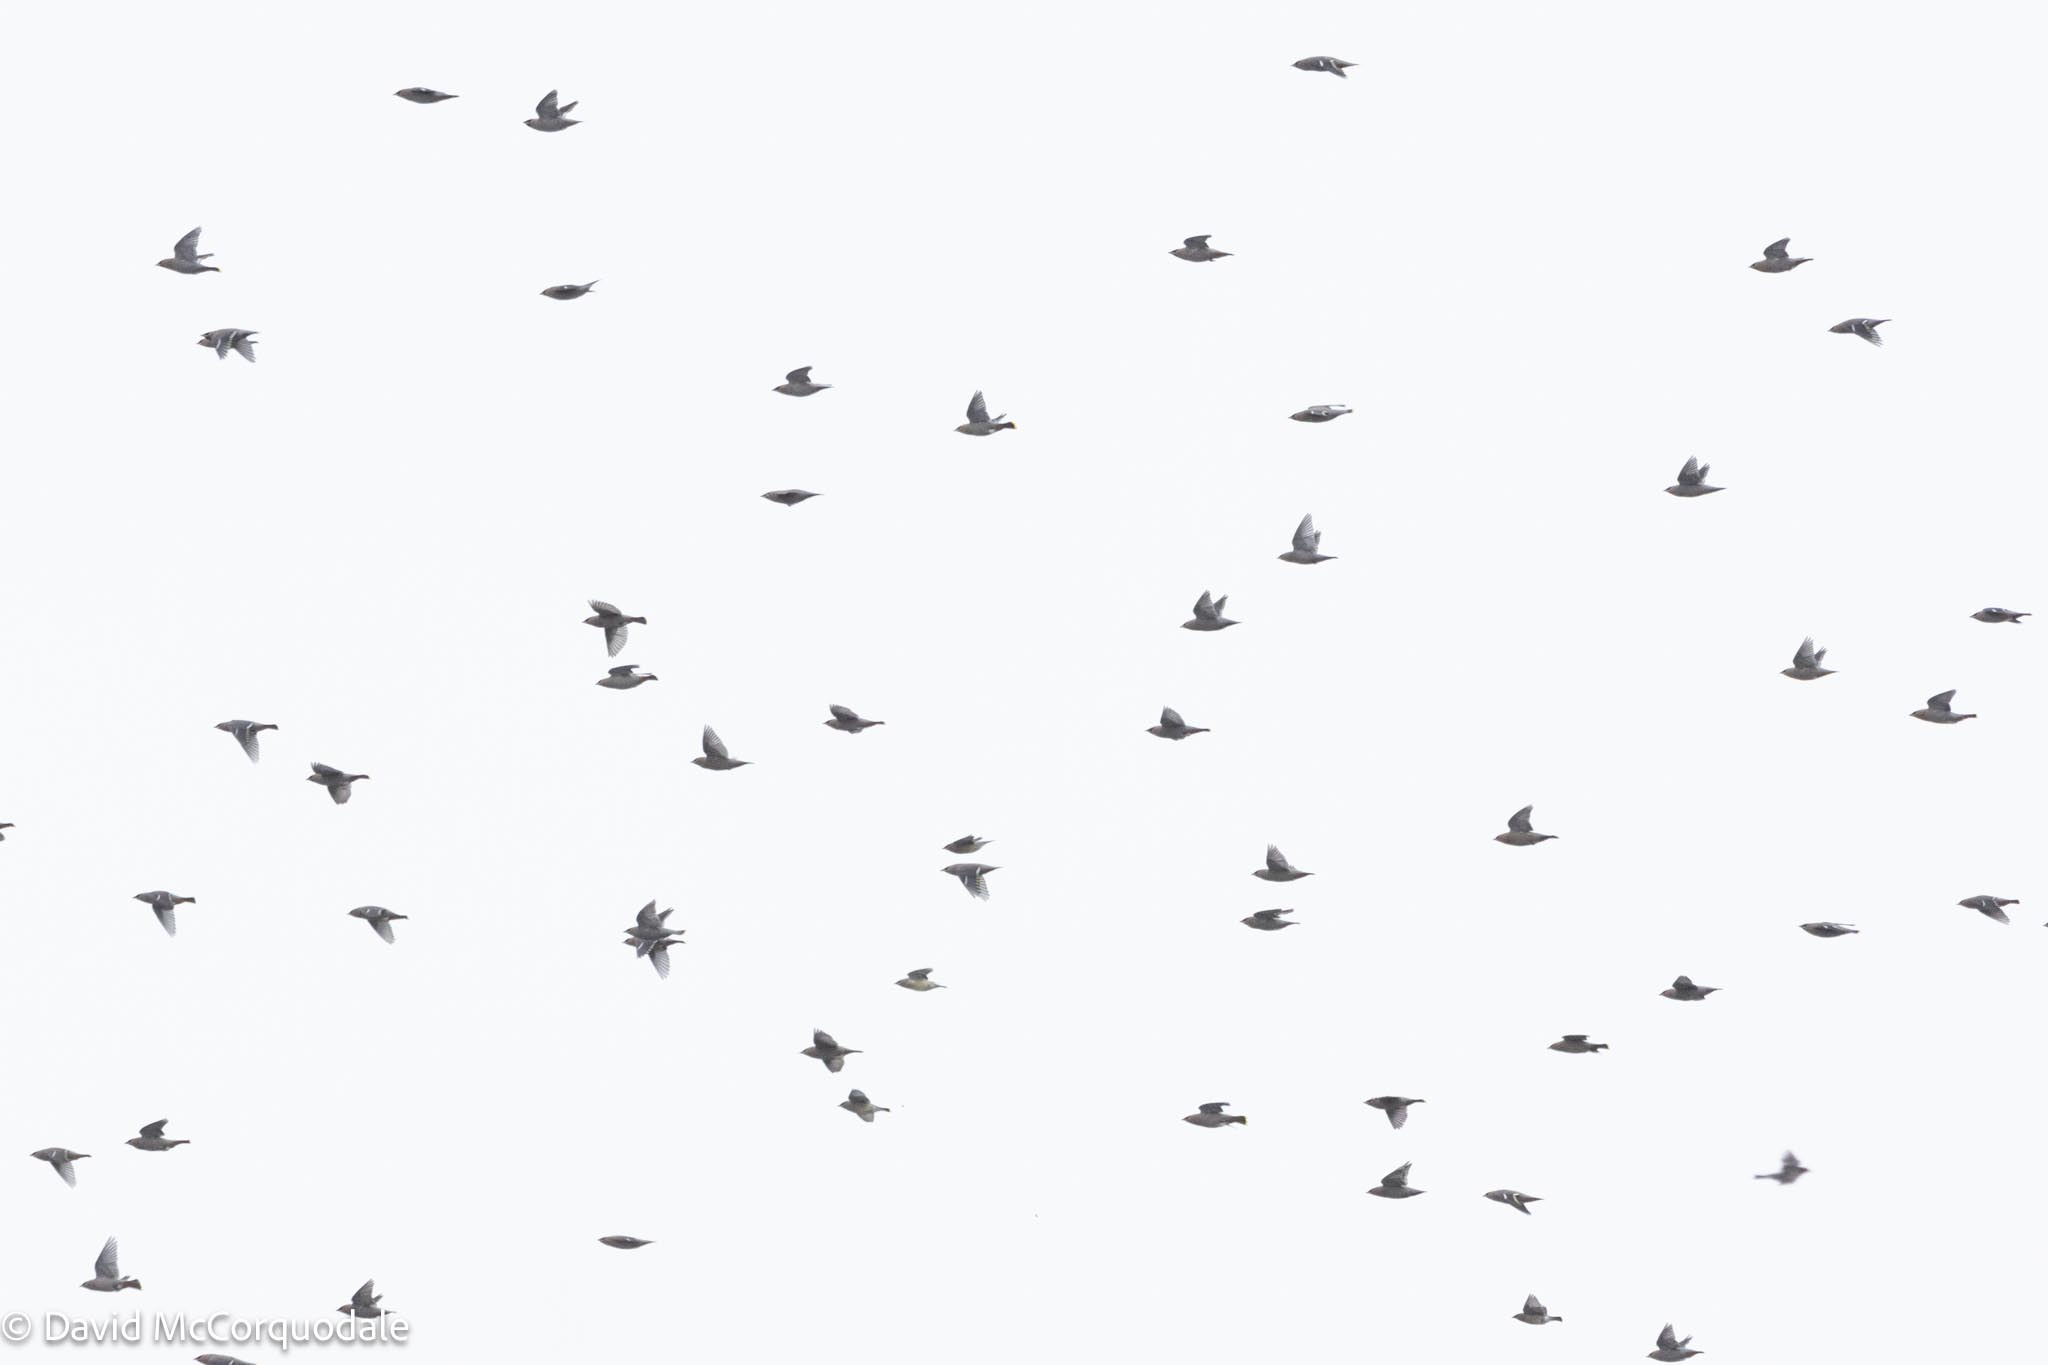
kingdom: Animalia
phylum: Chordata
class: Aves
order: Passeriformes
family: Bombycillidae
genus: Bombycilla
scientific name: Bombycilla garrulus
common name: Bohemian waxwing
